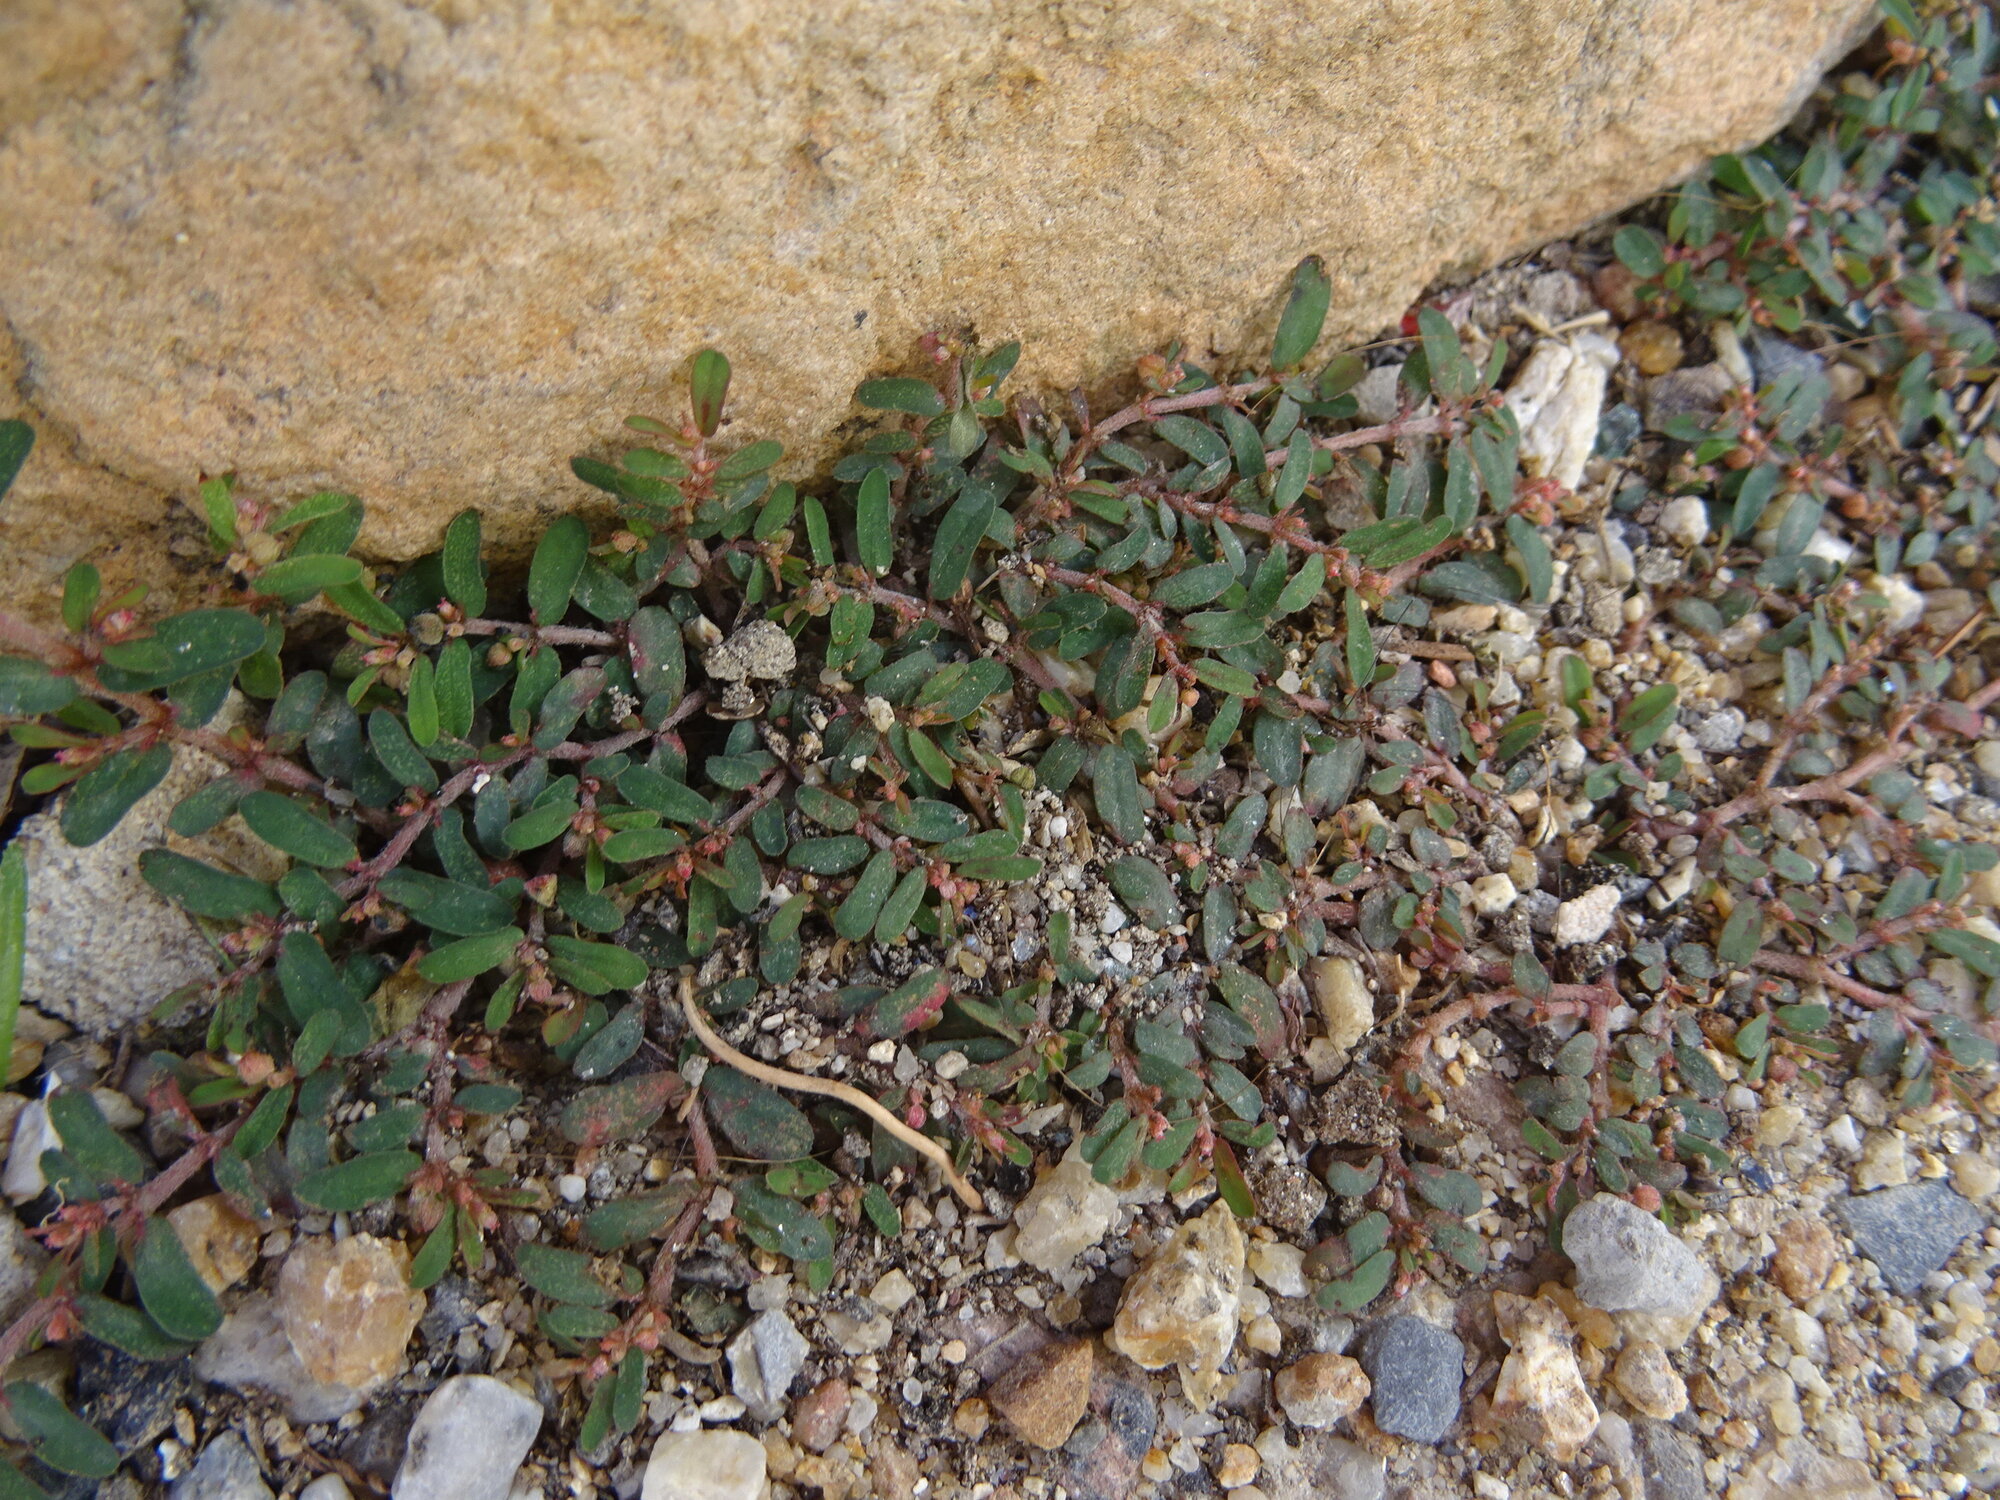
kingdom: Plantae
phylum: Tracheophyta
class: Magnoliopsida
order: Malpighiales
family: Euphorbiaceae
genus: Euphorbia
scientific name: Euphorbia maculata
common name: Spotted spurge
